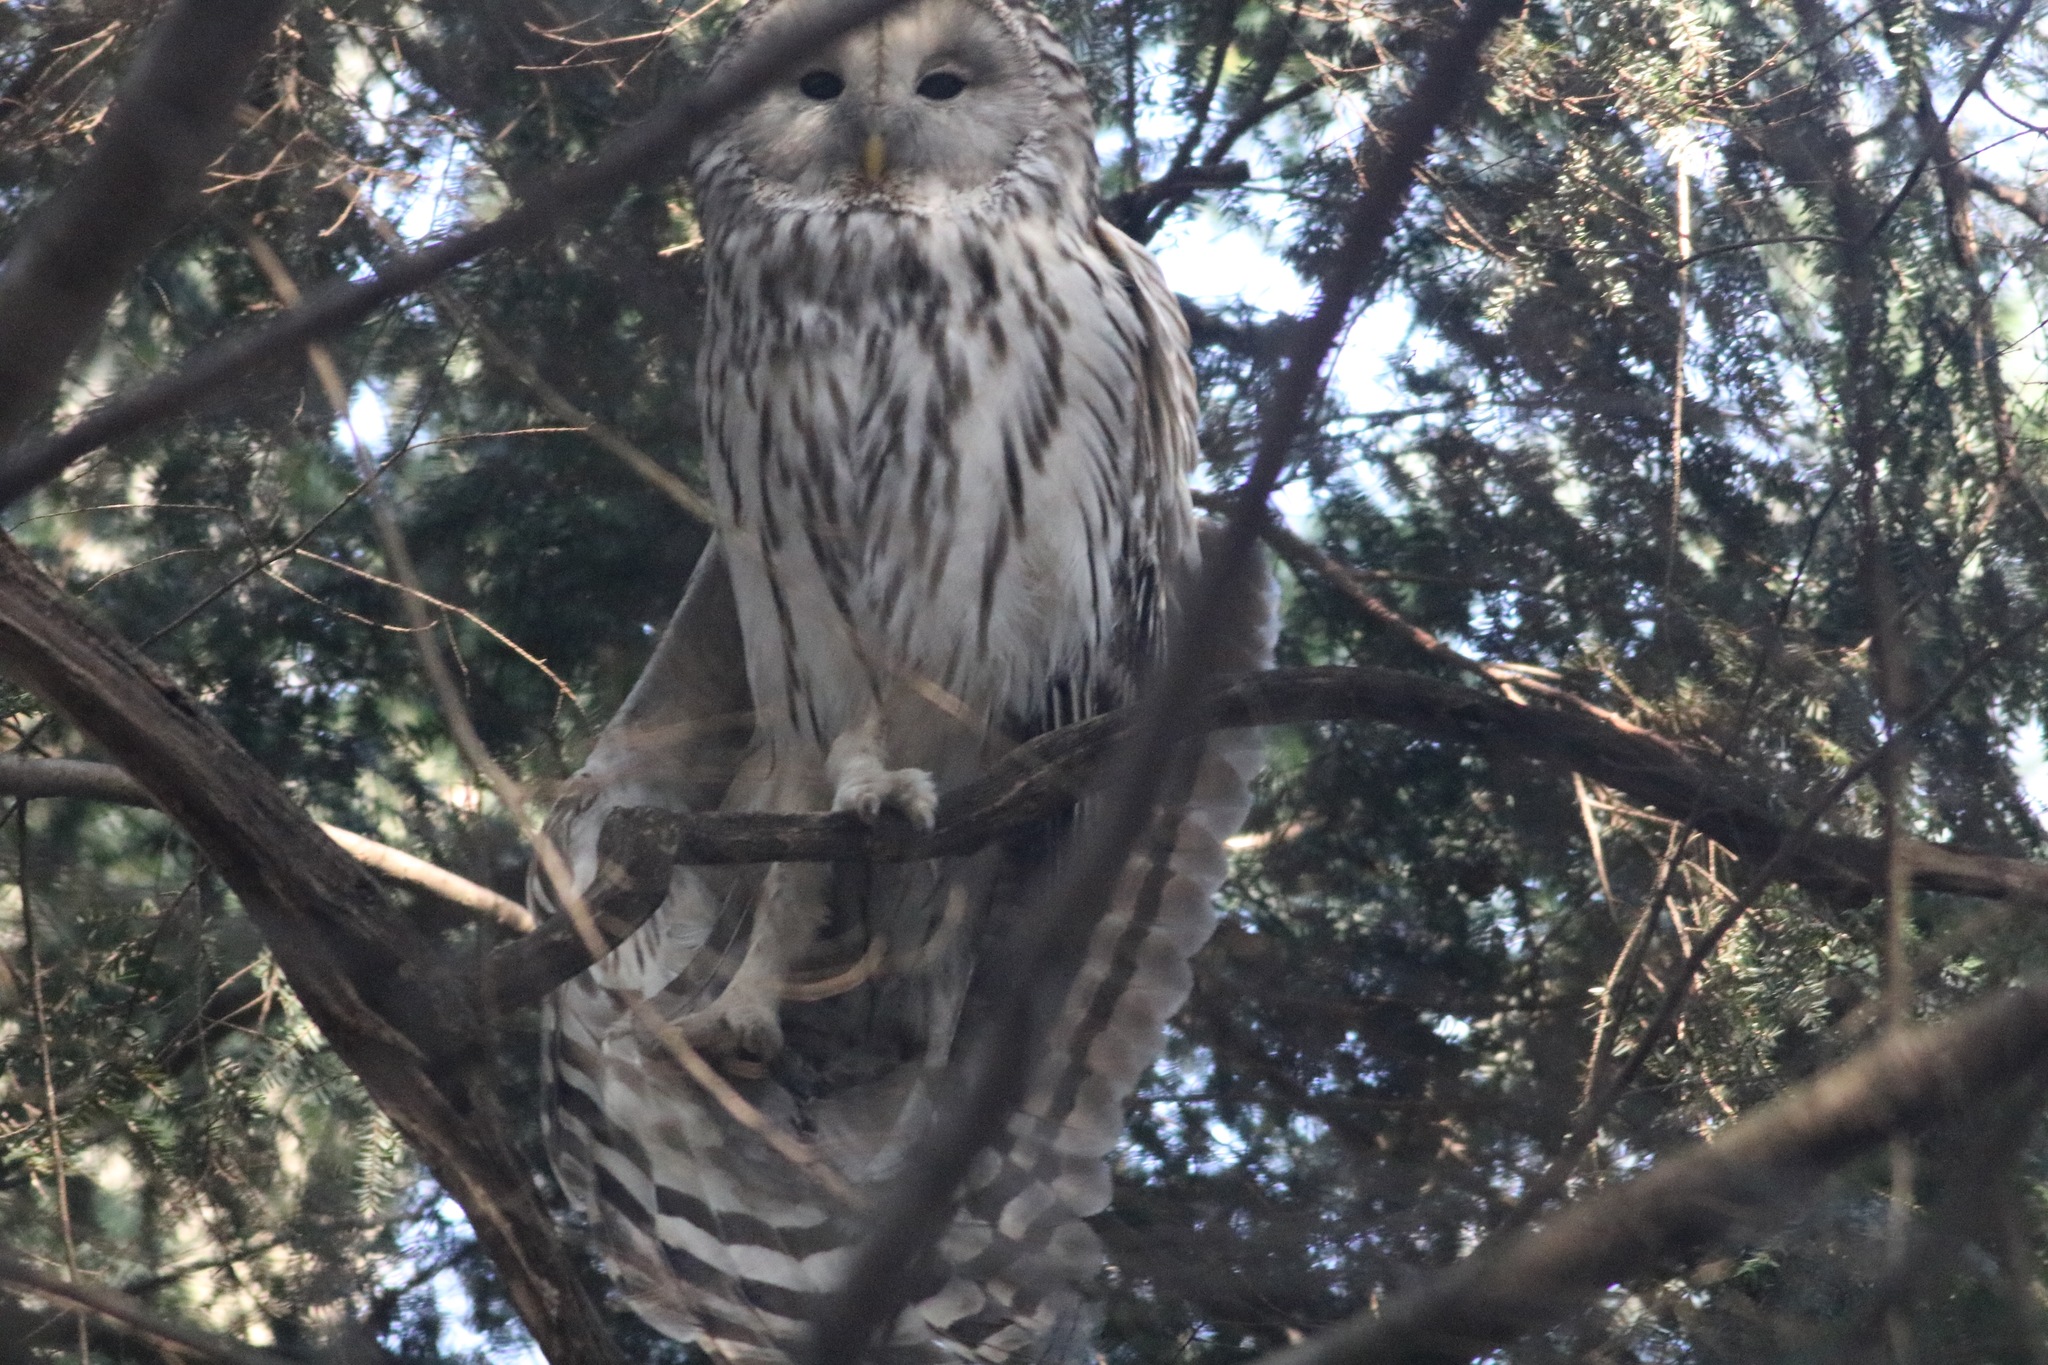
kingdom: Animalia
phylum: Chordata
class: Aves
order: Strigiformes
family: Strigidae
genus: Strix
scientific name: Strix uralensis
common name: Ural owl
